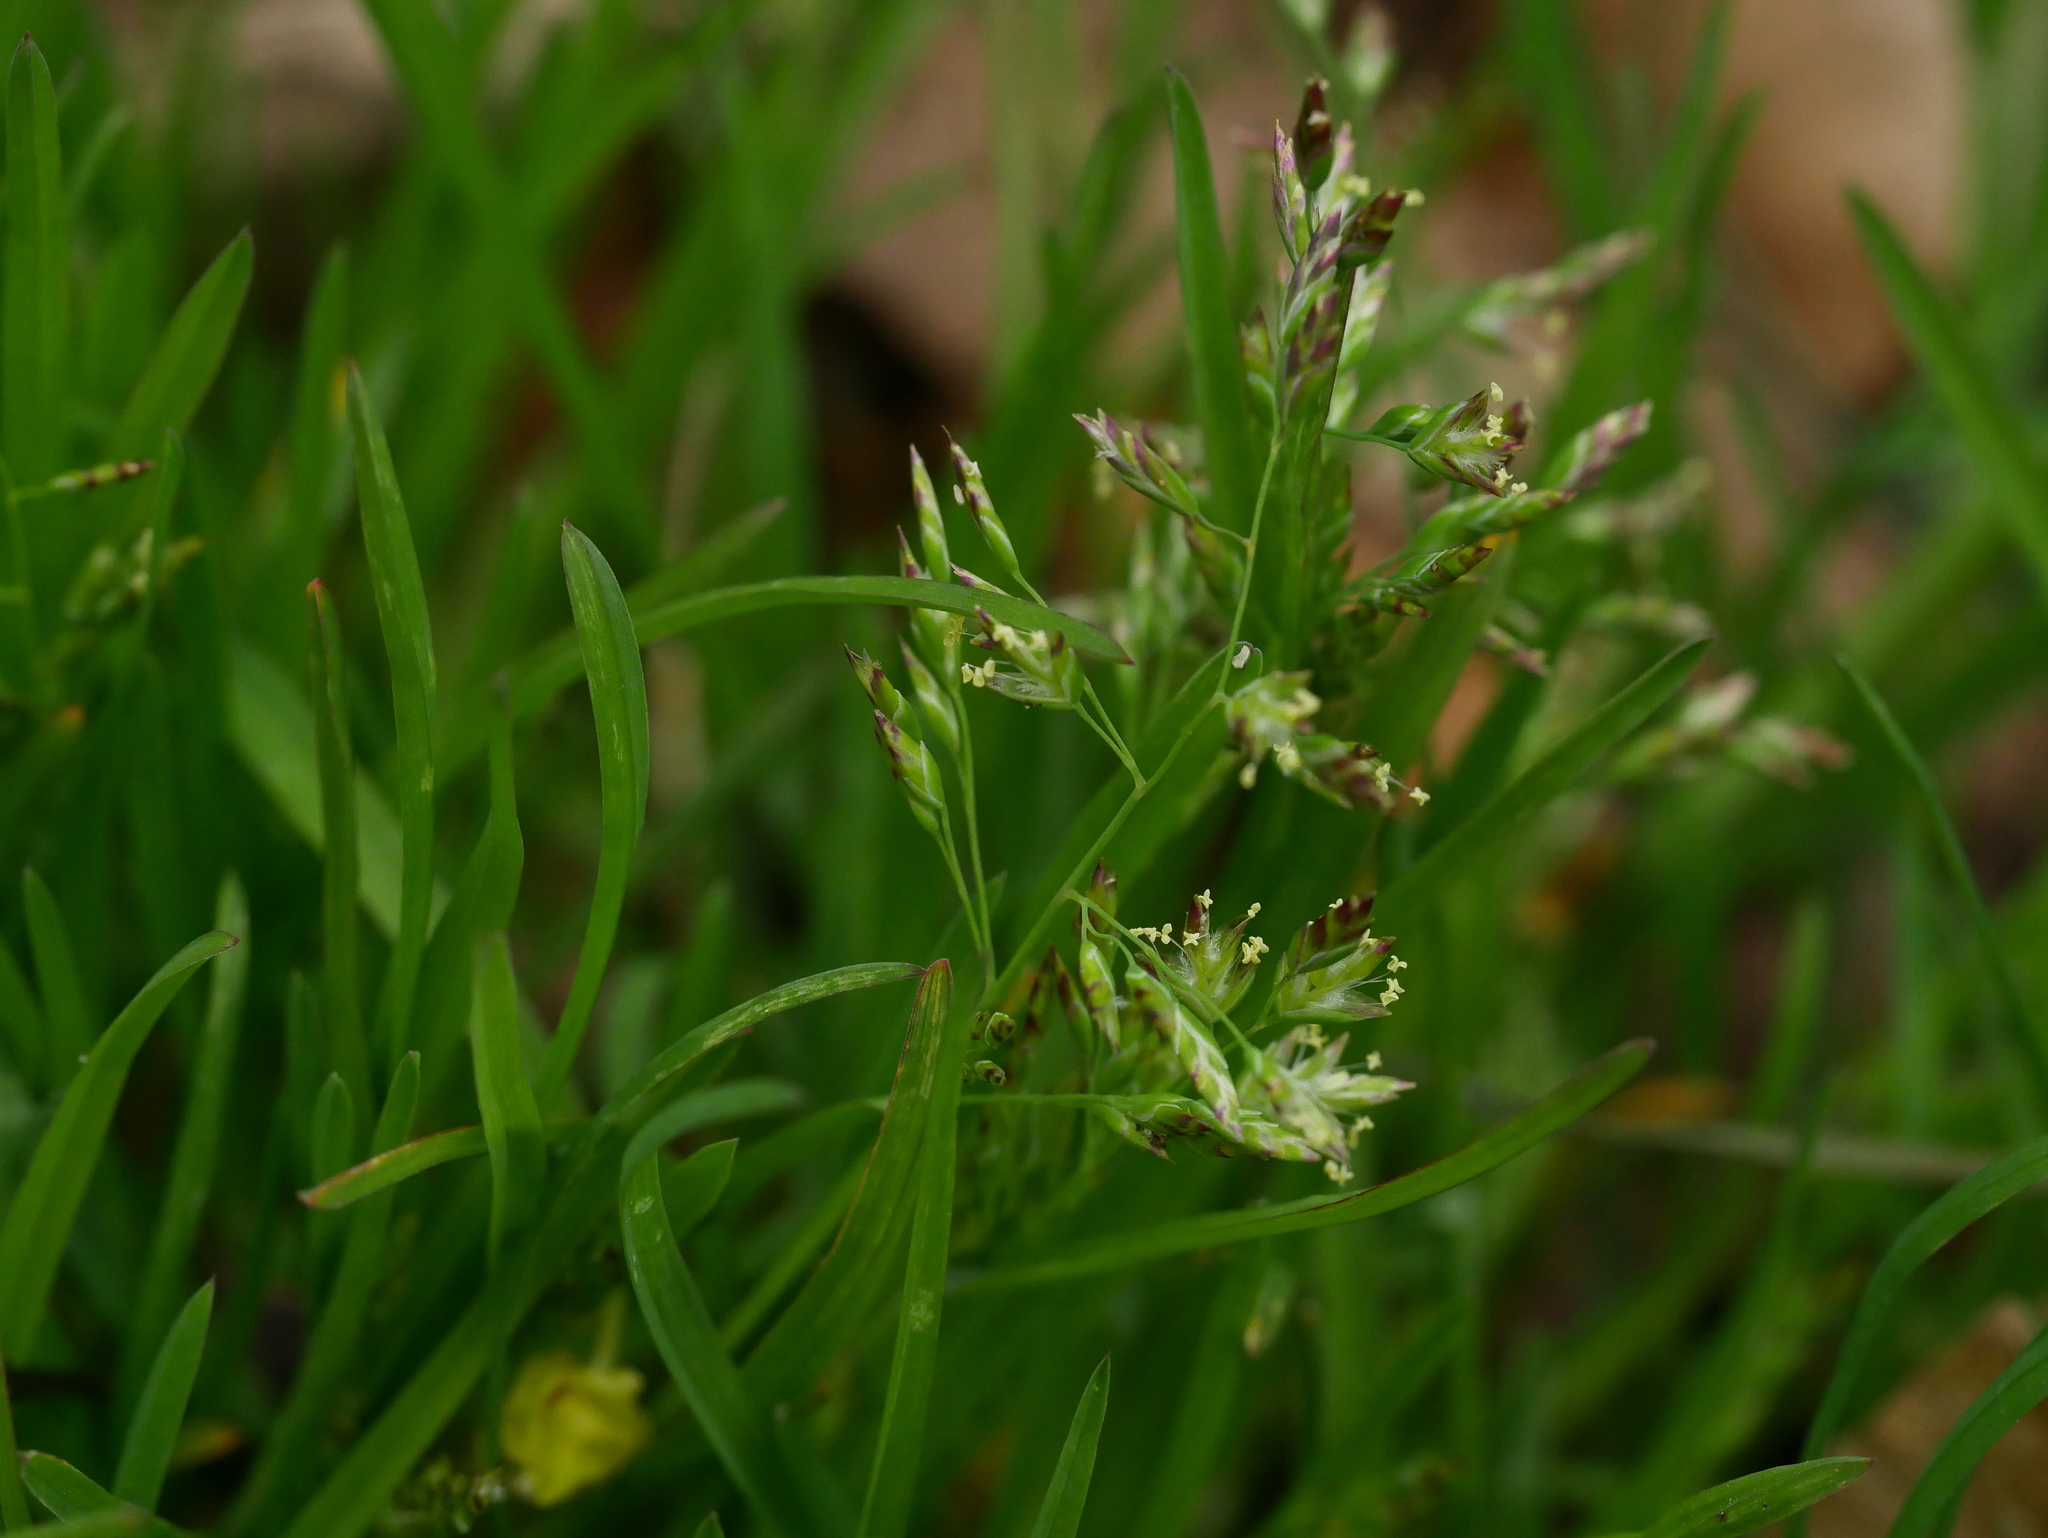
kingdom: Plantae
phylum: Tracheophyta
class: Liliopsida
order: Poales
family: Poaceae
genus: Poa
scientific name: Poa annua
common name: Annual bluegrass
